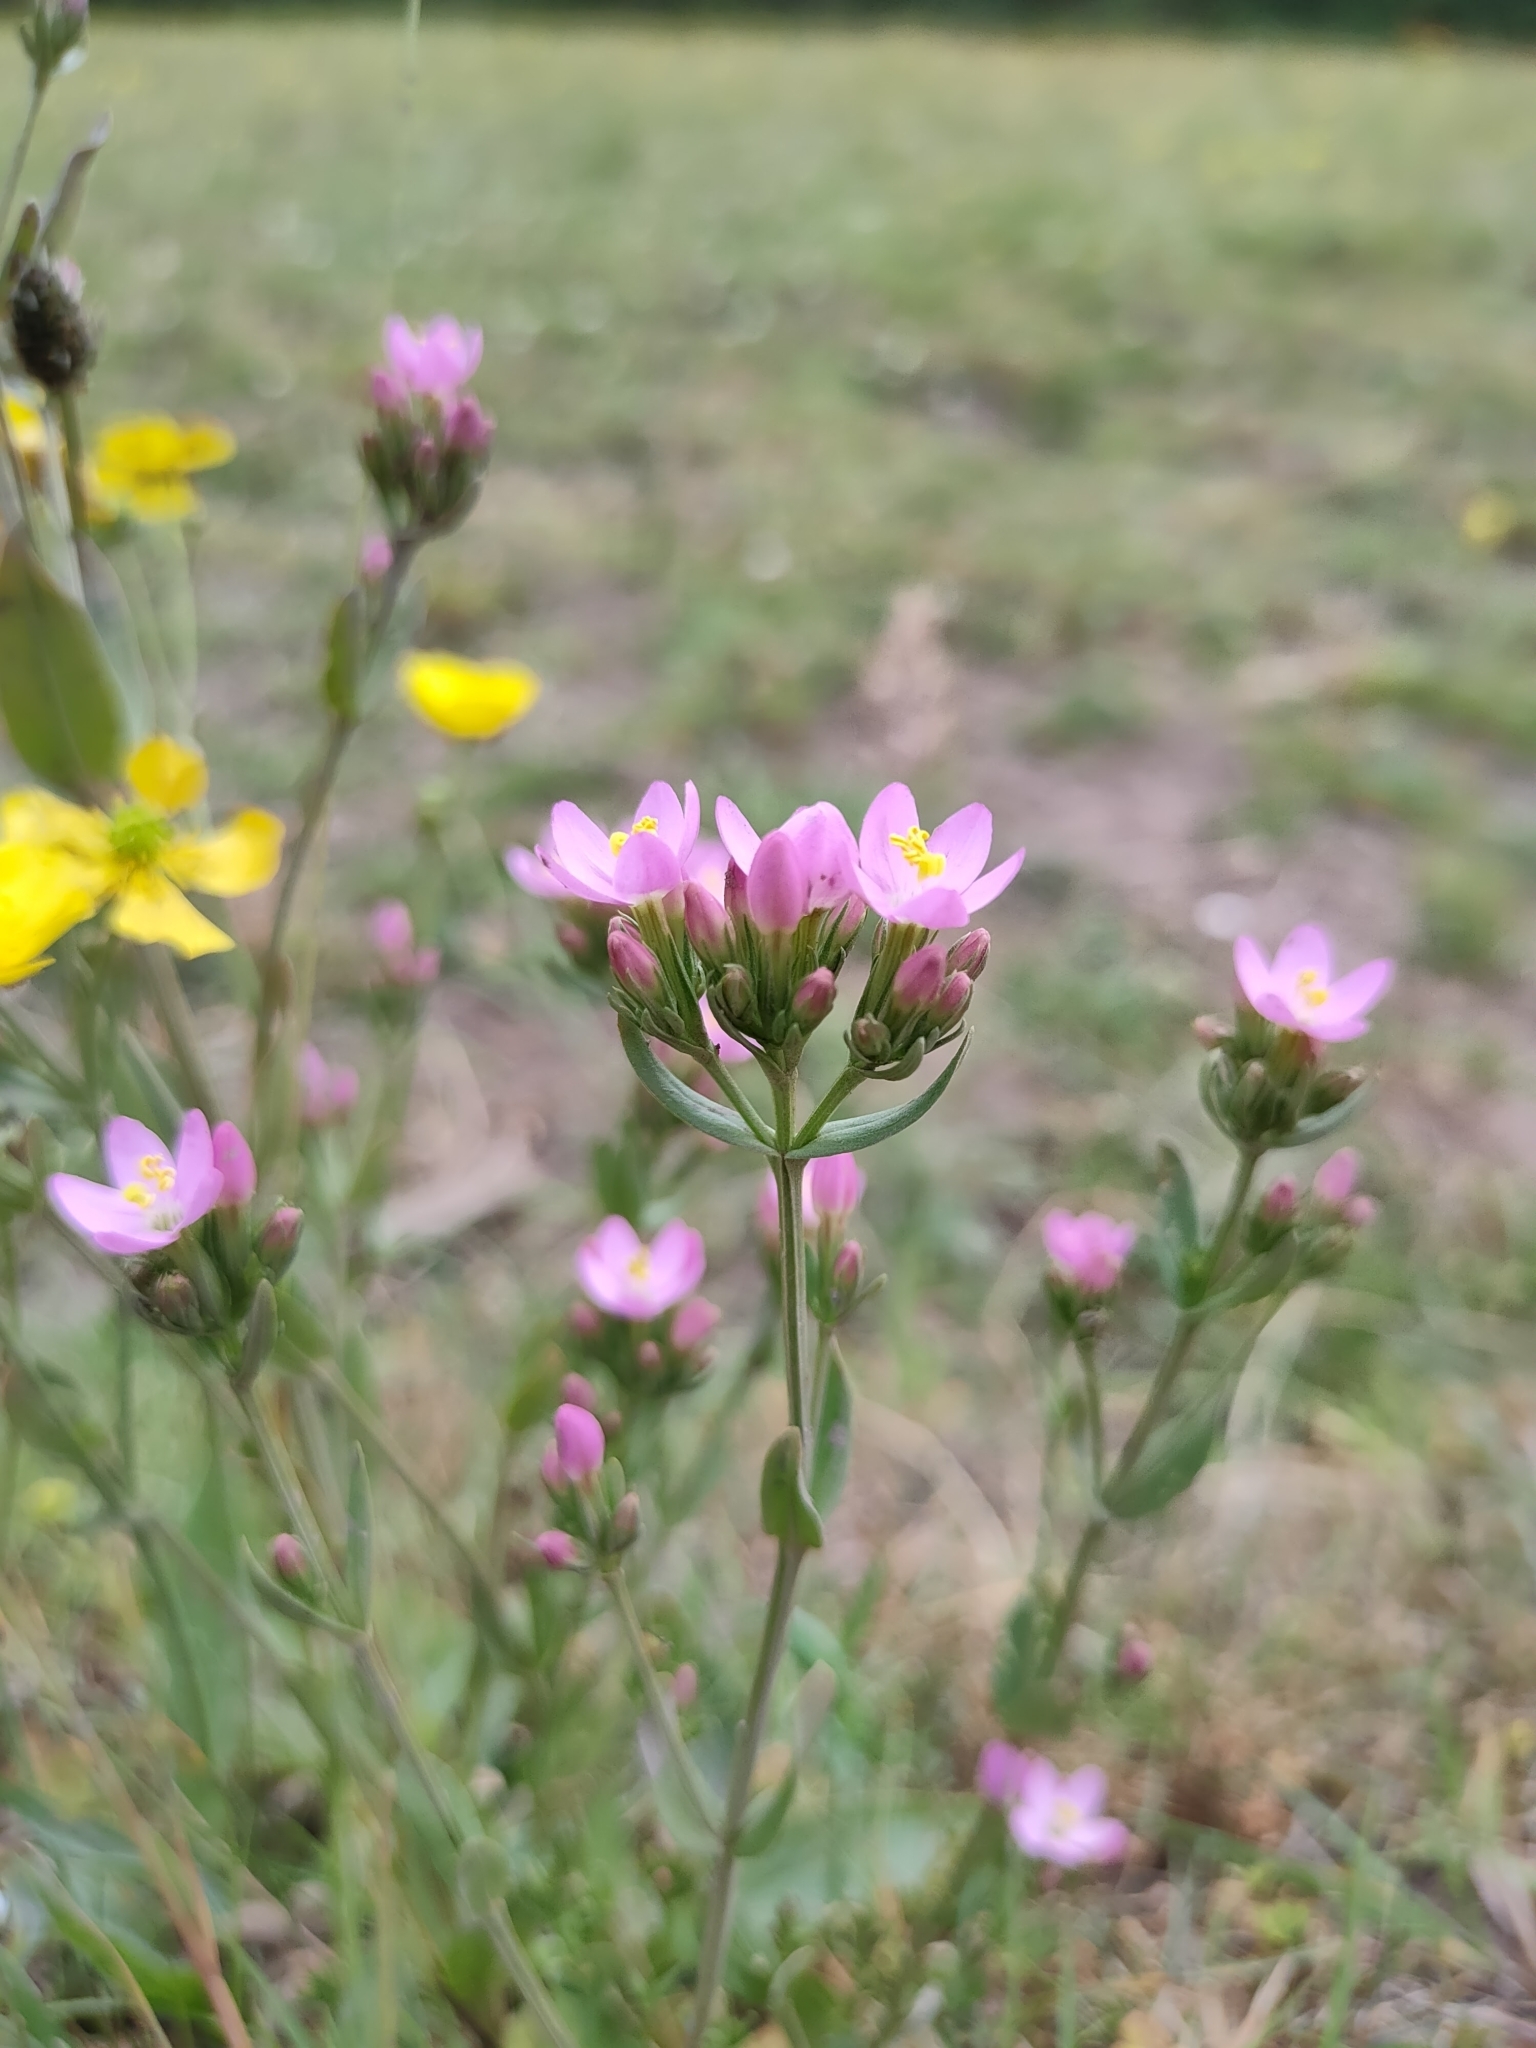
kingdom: Plantae
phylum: Tracheophyta
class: Magnoliopsida
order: Gentianales
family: Gentianaceae
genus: Centaurium
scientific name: Centaurium erythraea
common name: Common centaury
